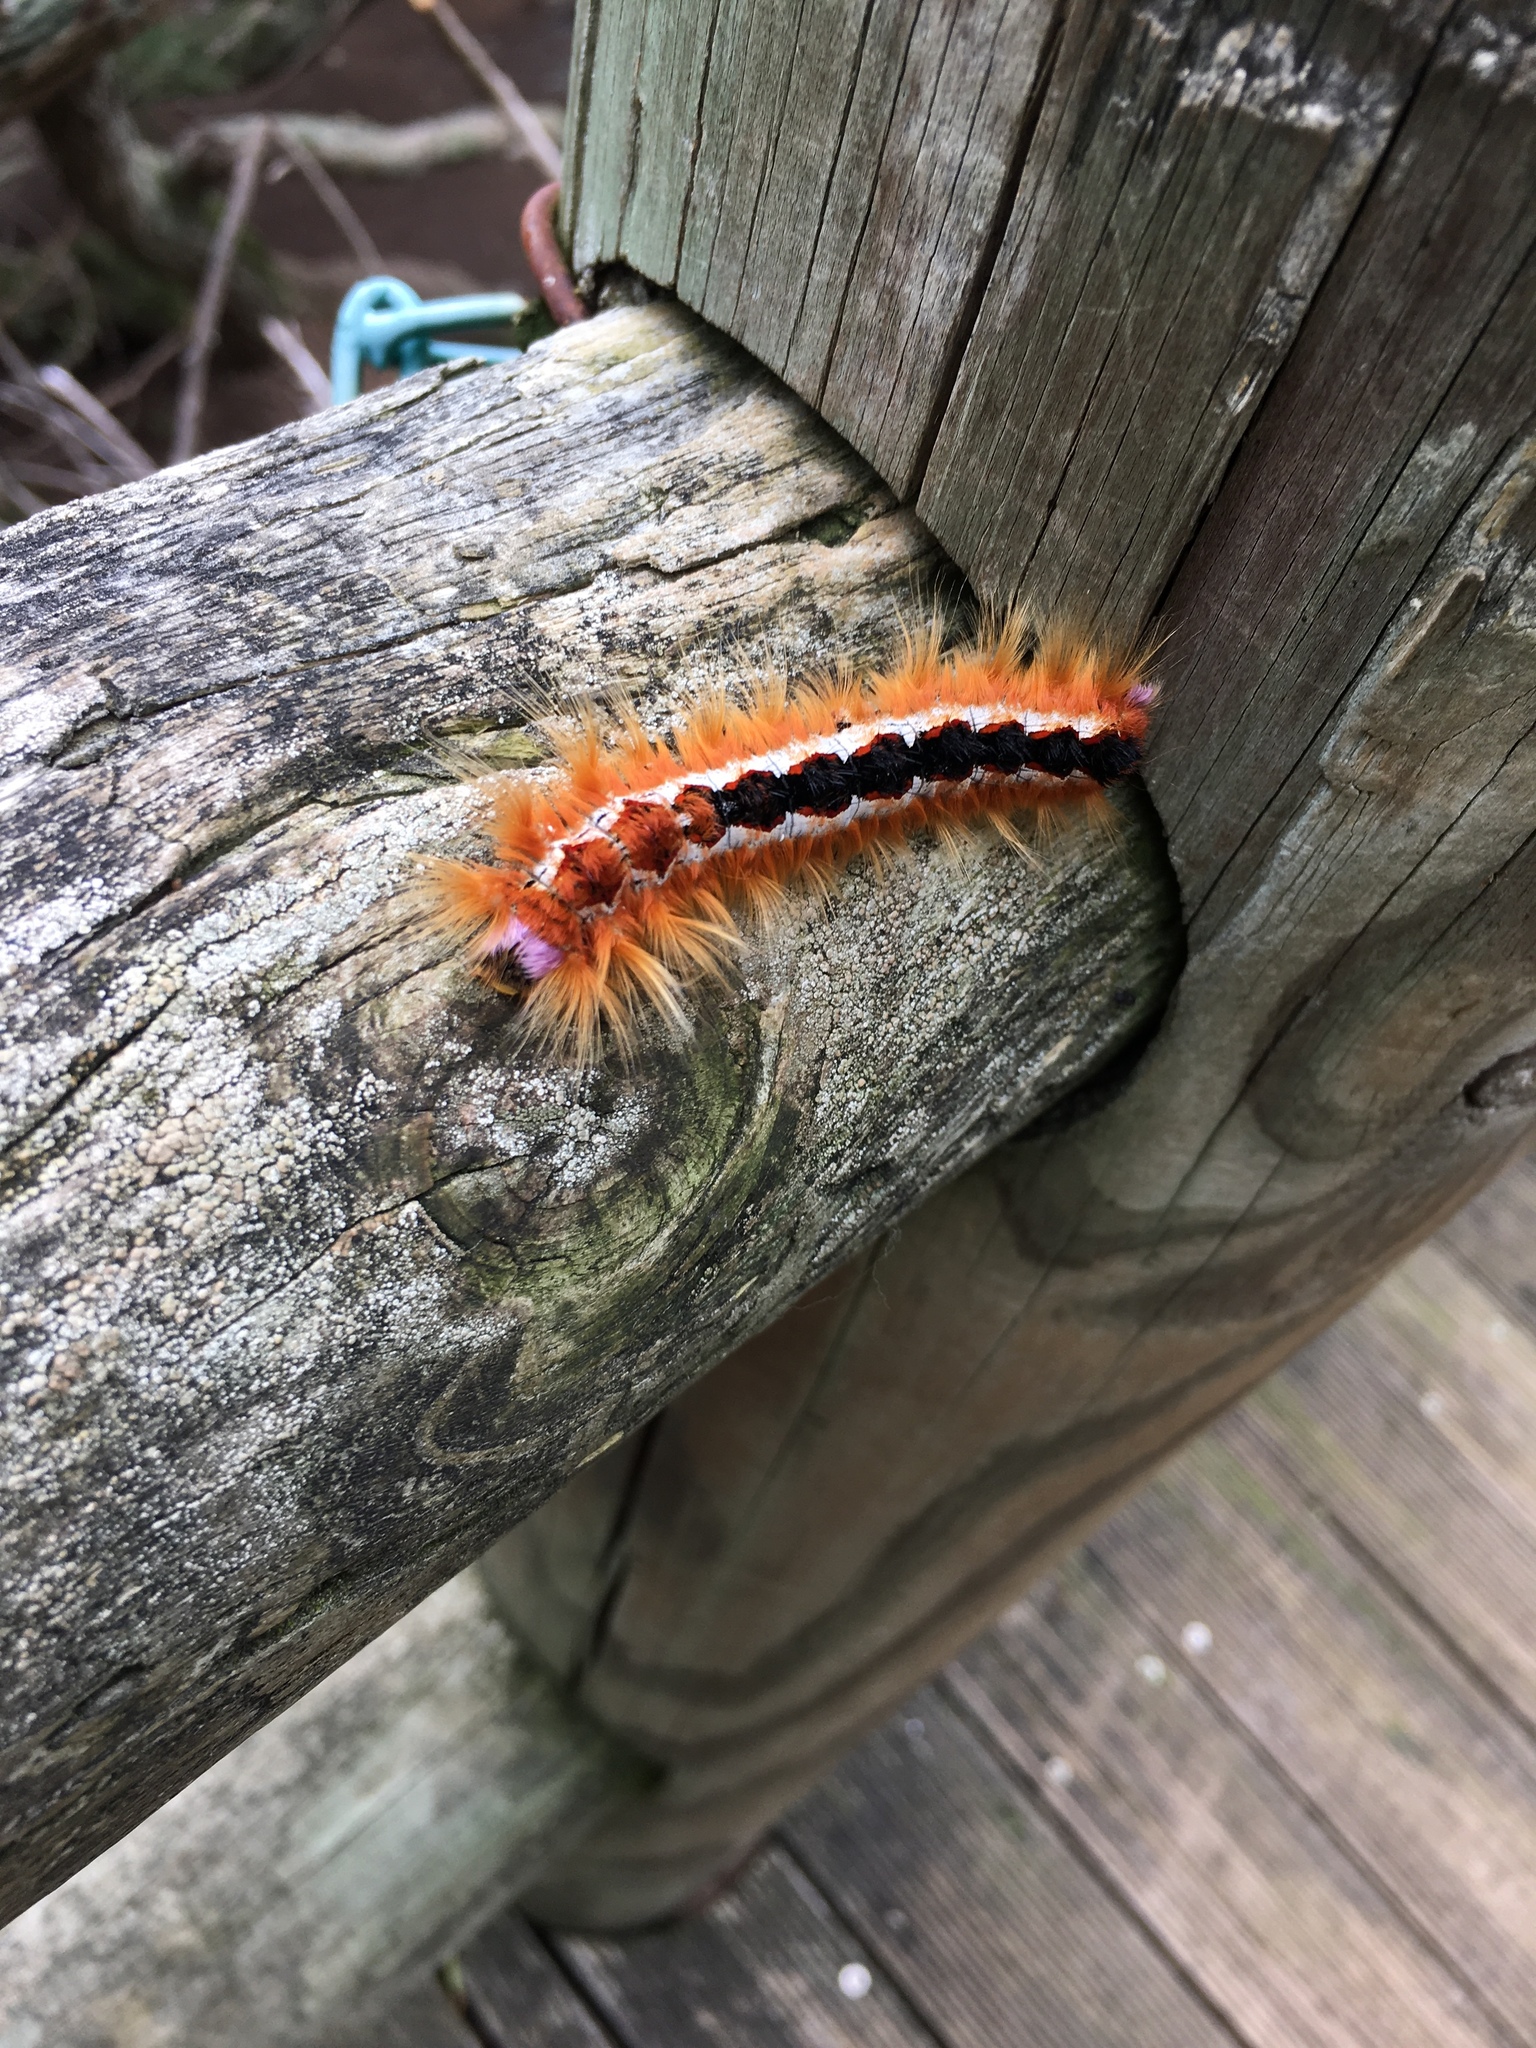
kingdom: Animalia
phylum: Arthropoda
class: Insecta
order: Lepidoptera
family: Lasiocampidae
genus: Eutricha
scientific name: Eutricha capensis
